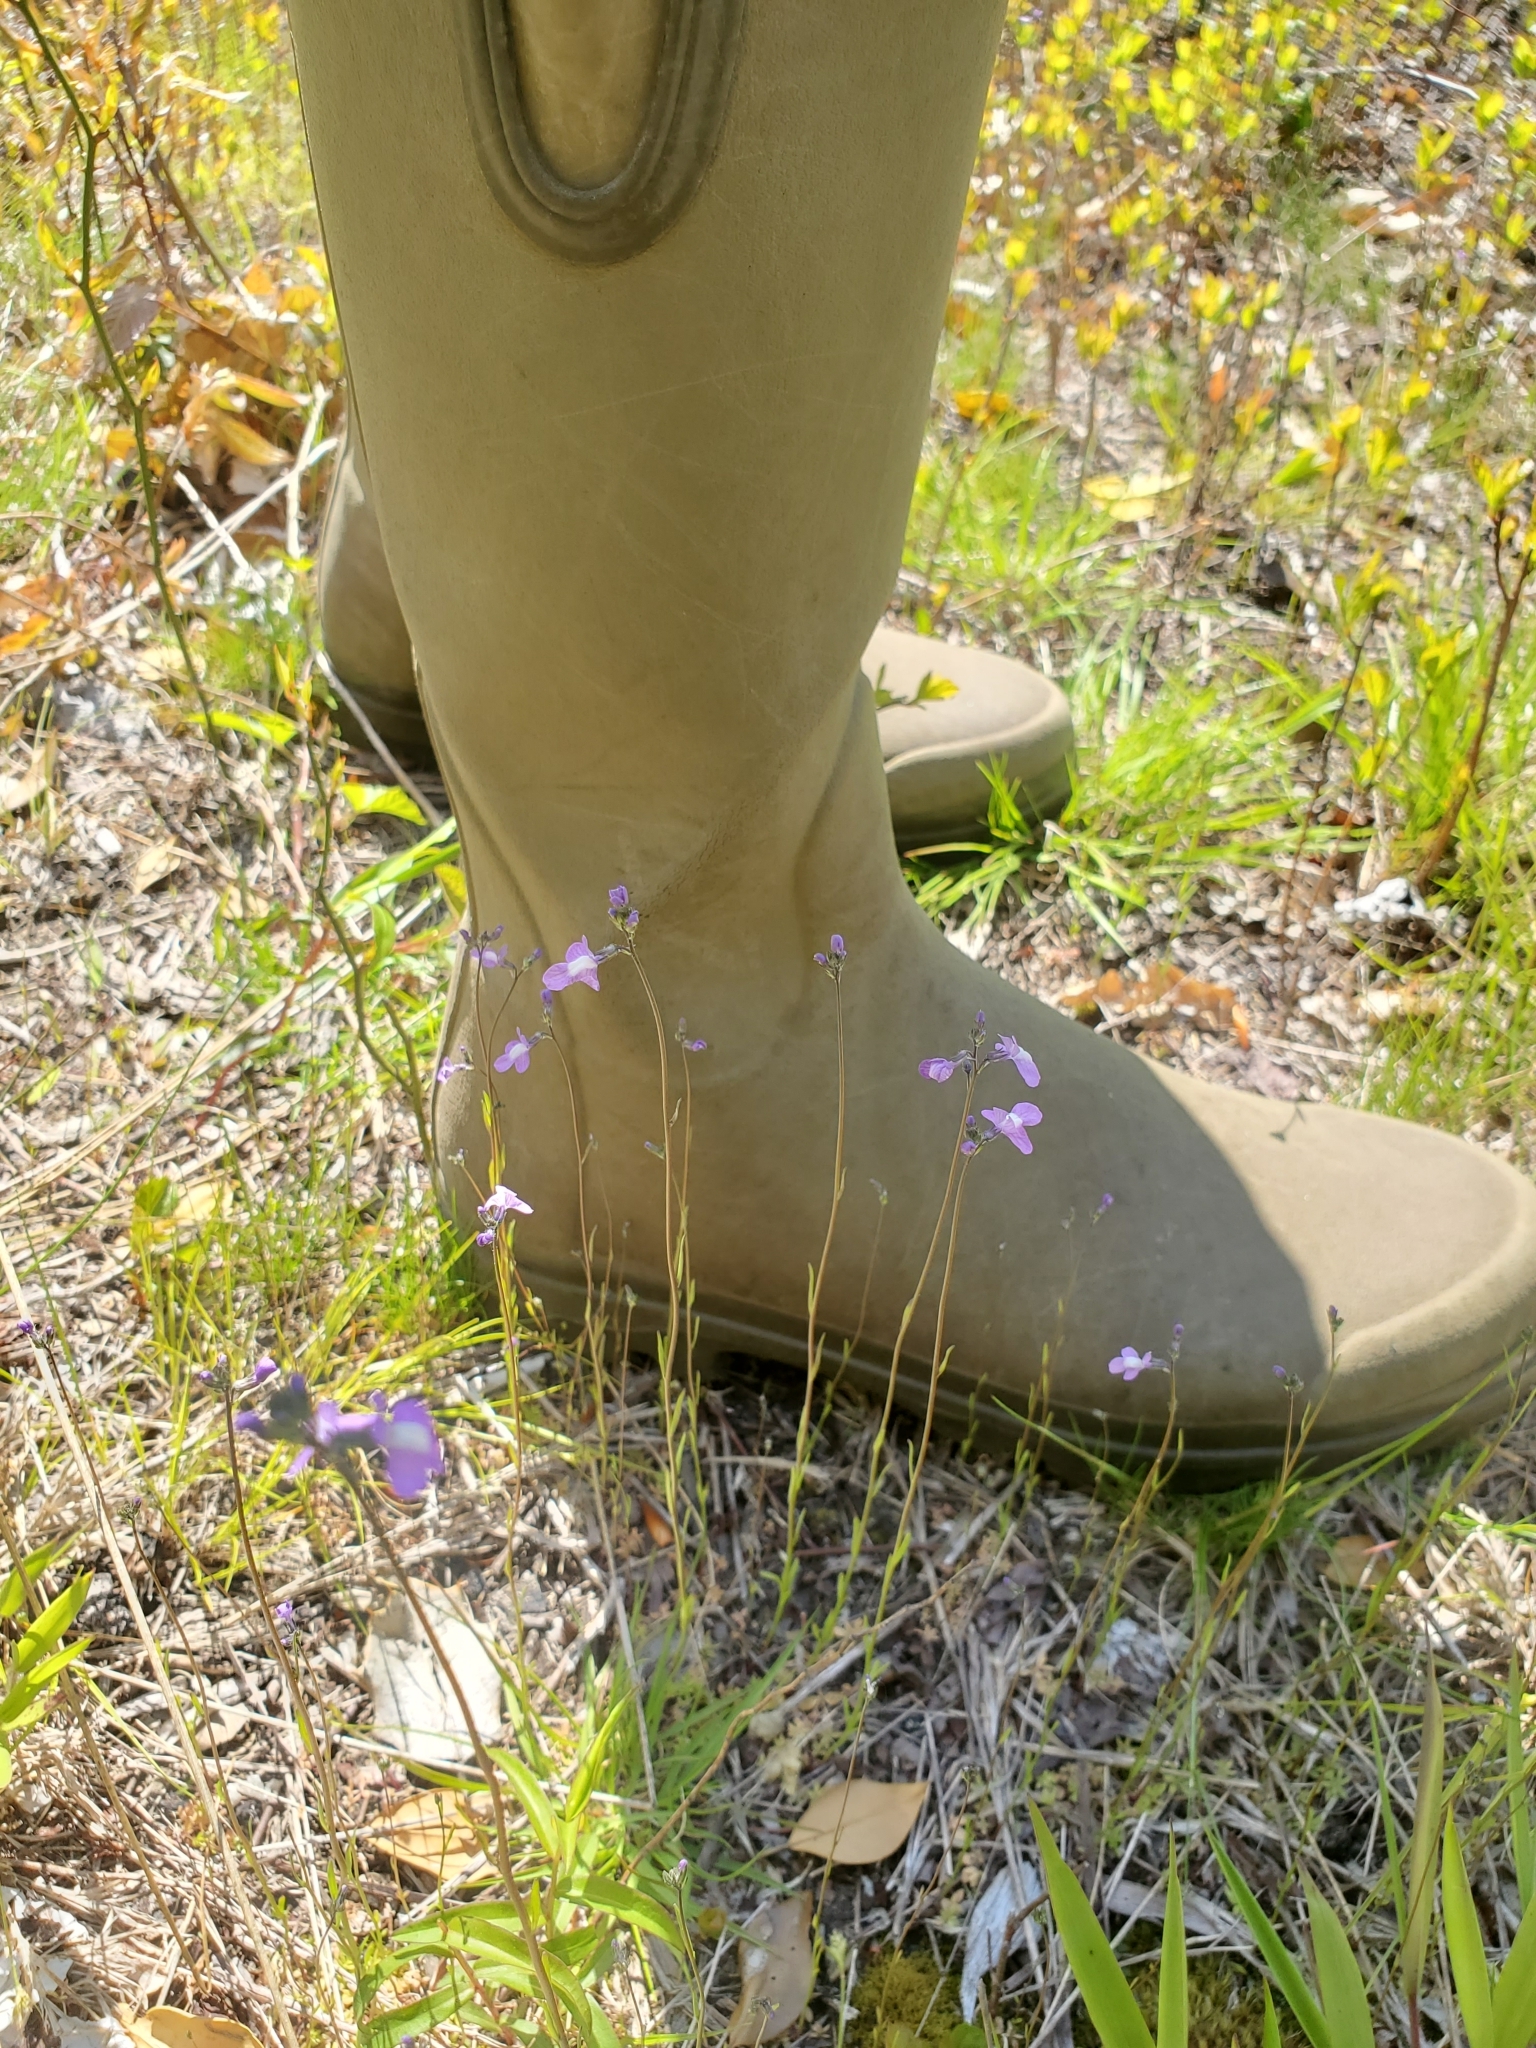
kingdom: Plantae
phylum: Tracheophyta
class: Magnoliopsida
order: Lamiales
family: Plantaginaceae
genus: Nuttallanthus
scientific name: Nuttallanthus canadensis
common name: Blue toadflax
